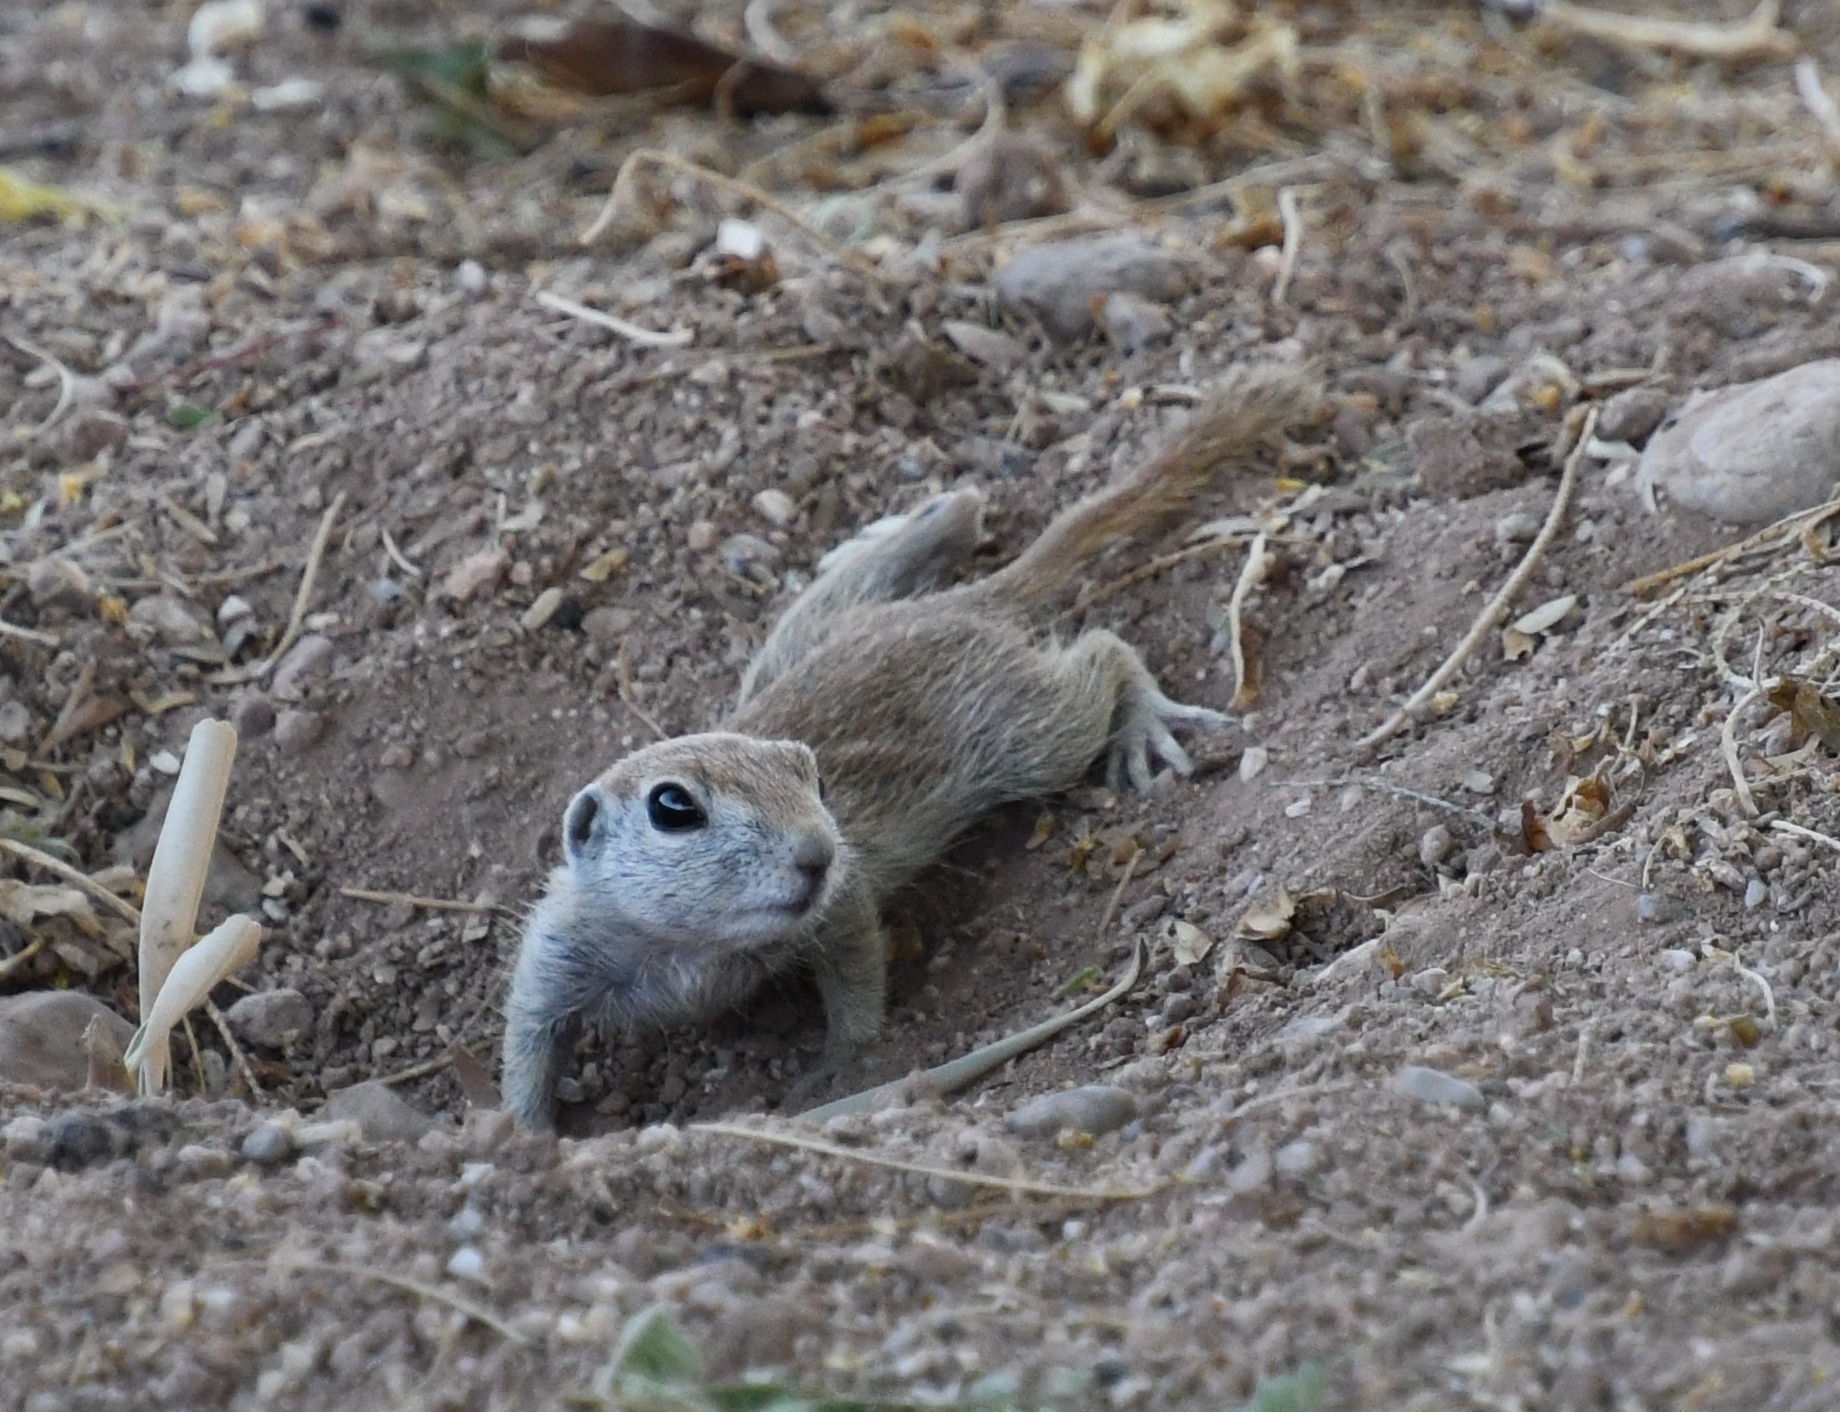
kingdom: Animalia
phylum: Chordata
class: Mammalia
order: Rodentia
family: Sciuridae
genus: Xerospermophilus
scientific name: Xerospermophilus tereticaudus
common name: Round-tailed ground squirrel
